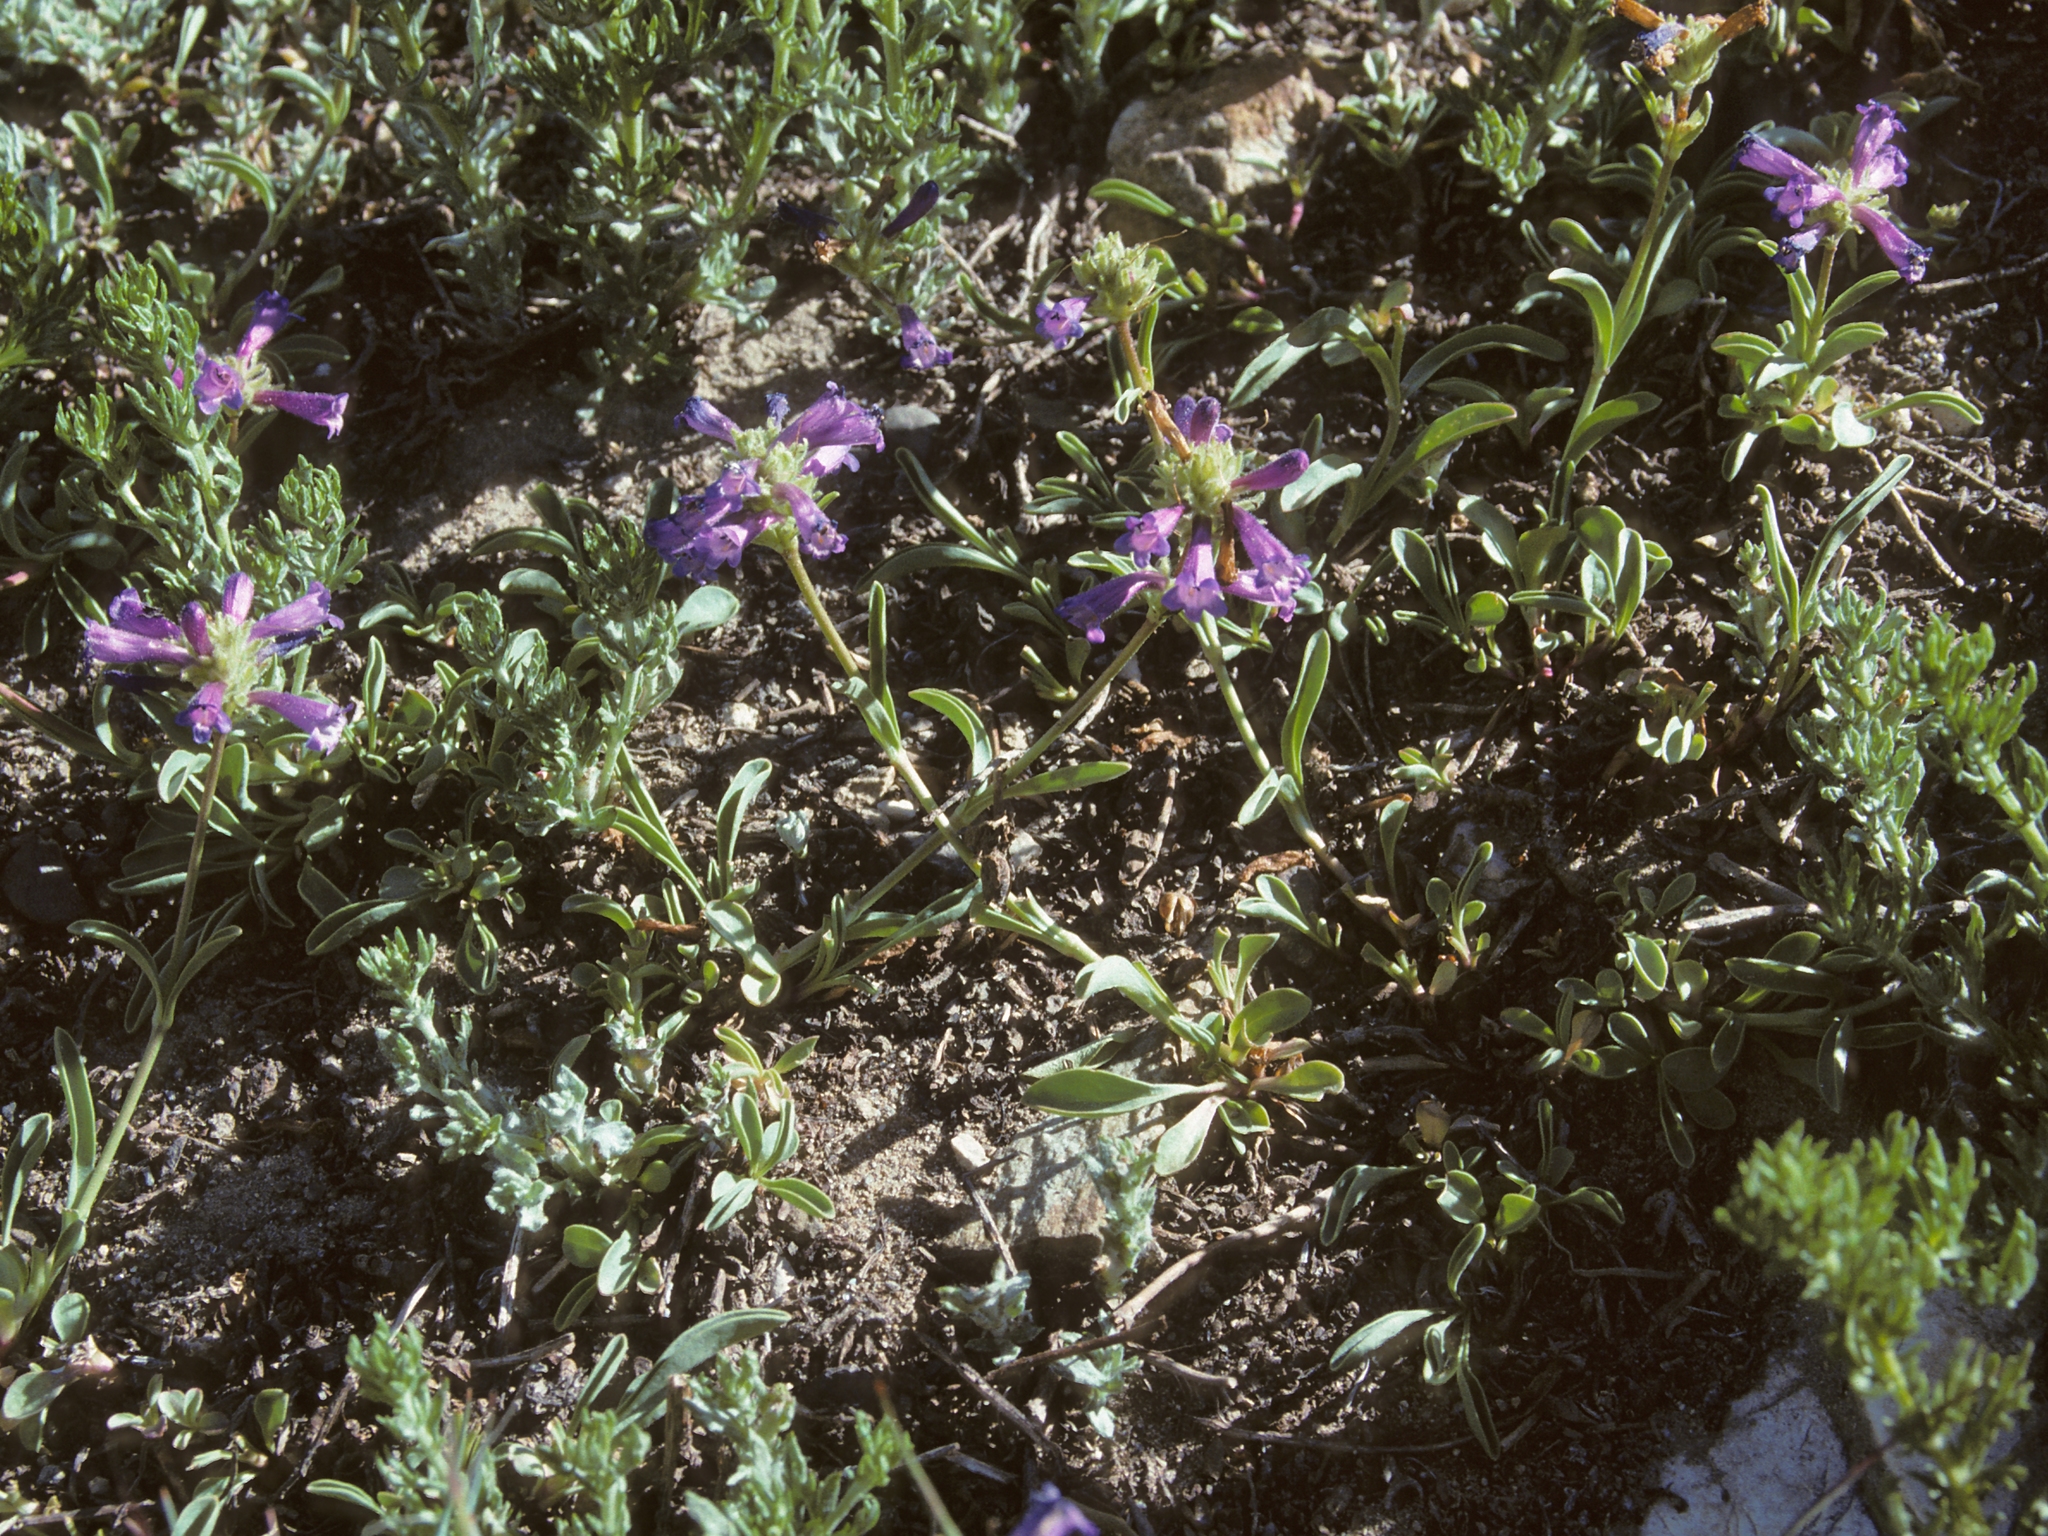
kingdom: Plantae
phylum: Tracheophyta
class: Magnoliopsida
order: Lamiales
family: Plantaginaceae
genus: Penstemon
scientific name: Penstemon heterodoxus
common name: Sierran penstemon
